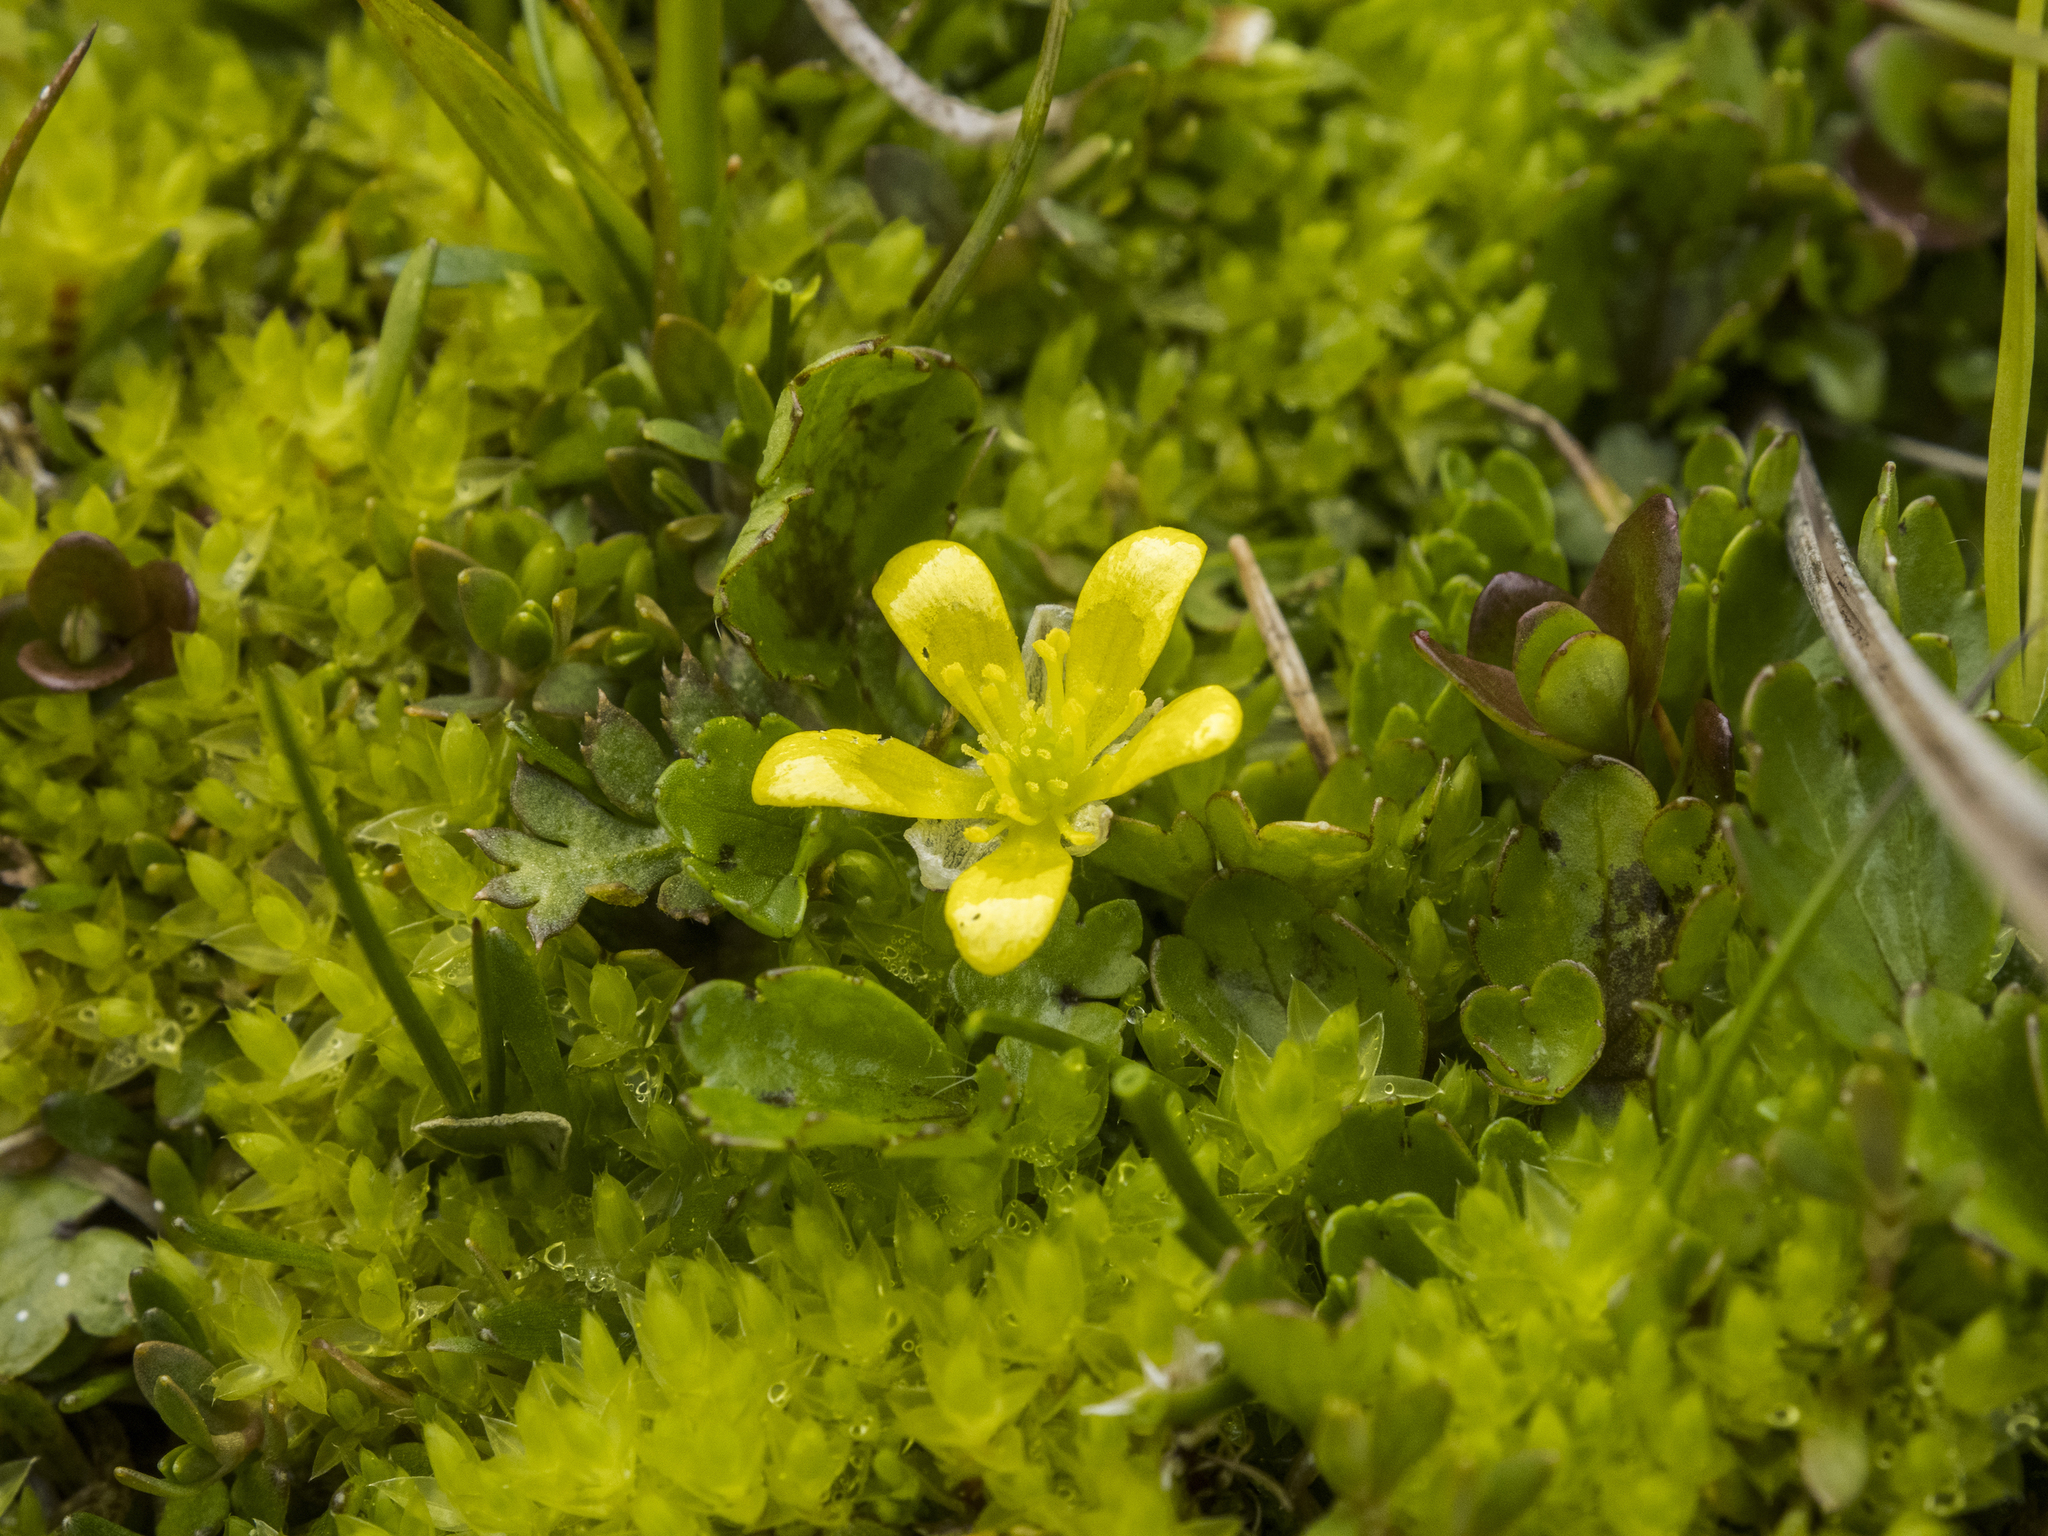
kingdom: Plantae
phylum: Tracheophyta
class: Magnoliopsida
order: Ranunculales
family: Ranunculaceae
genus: Ranunculus
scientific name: Ranunculus maculatus
